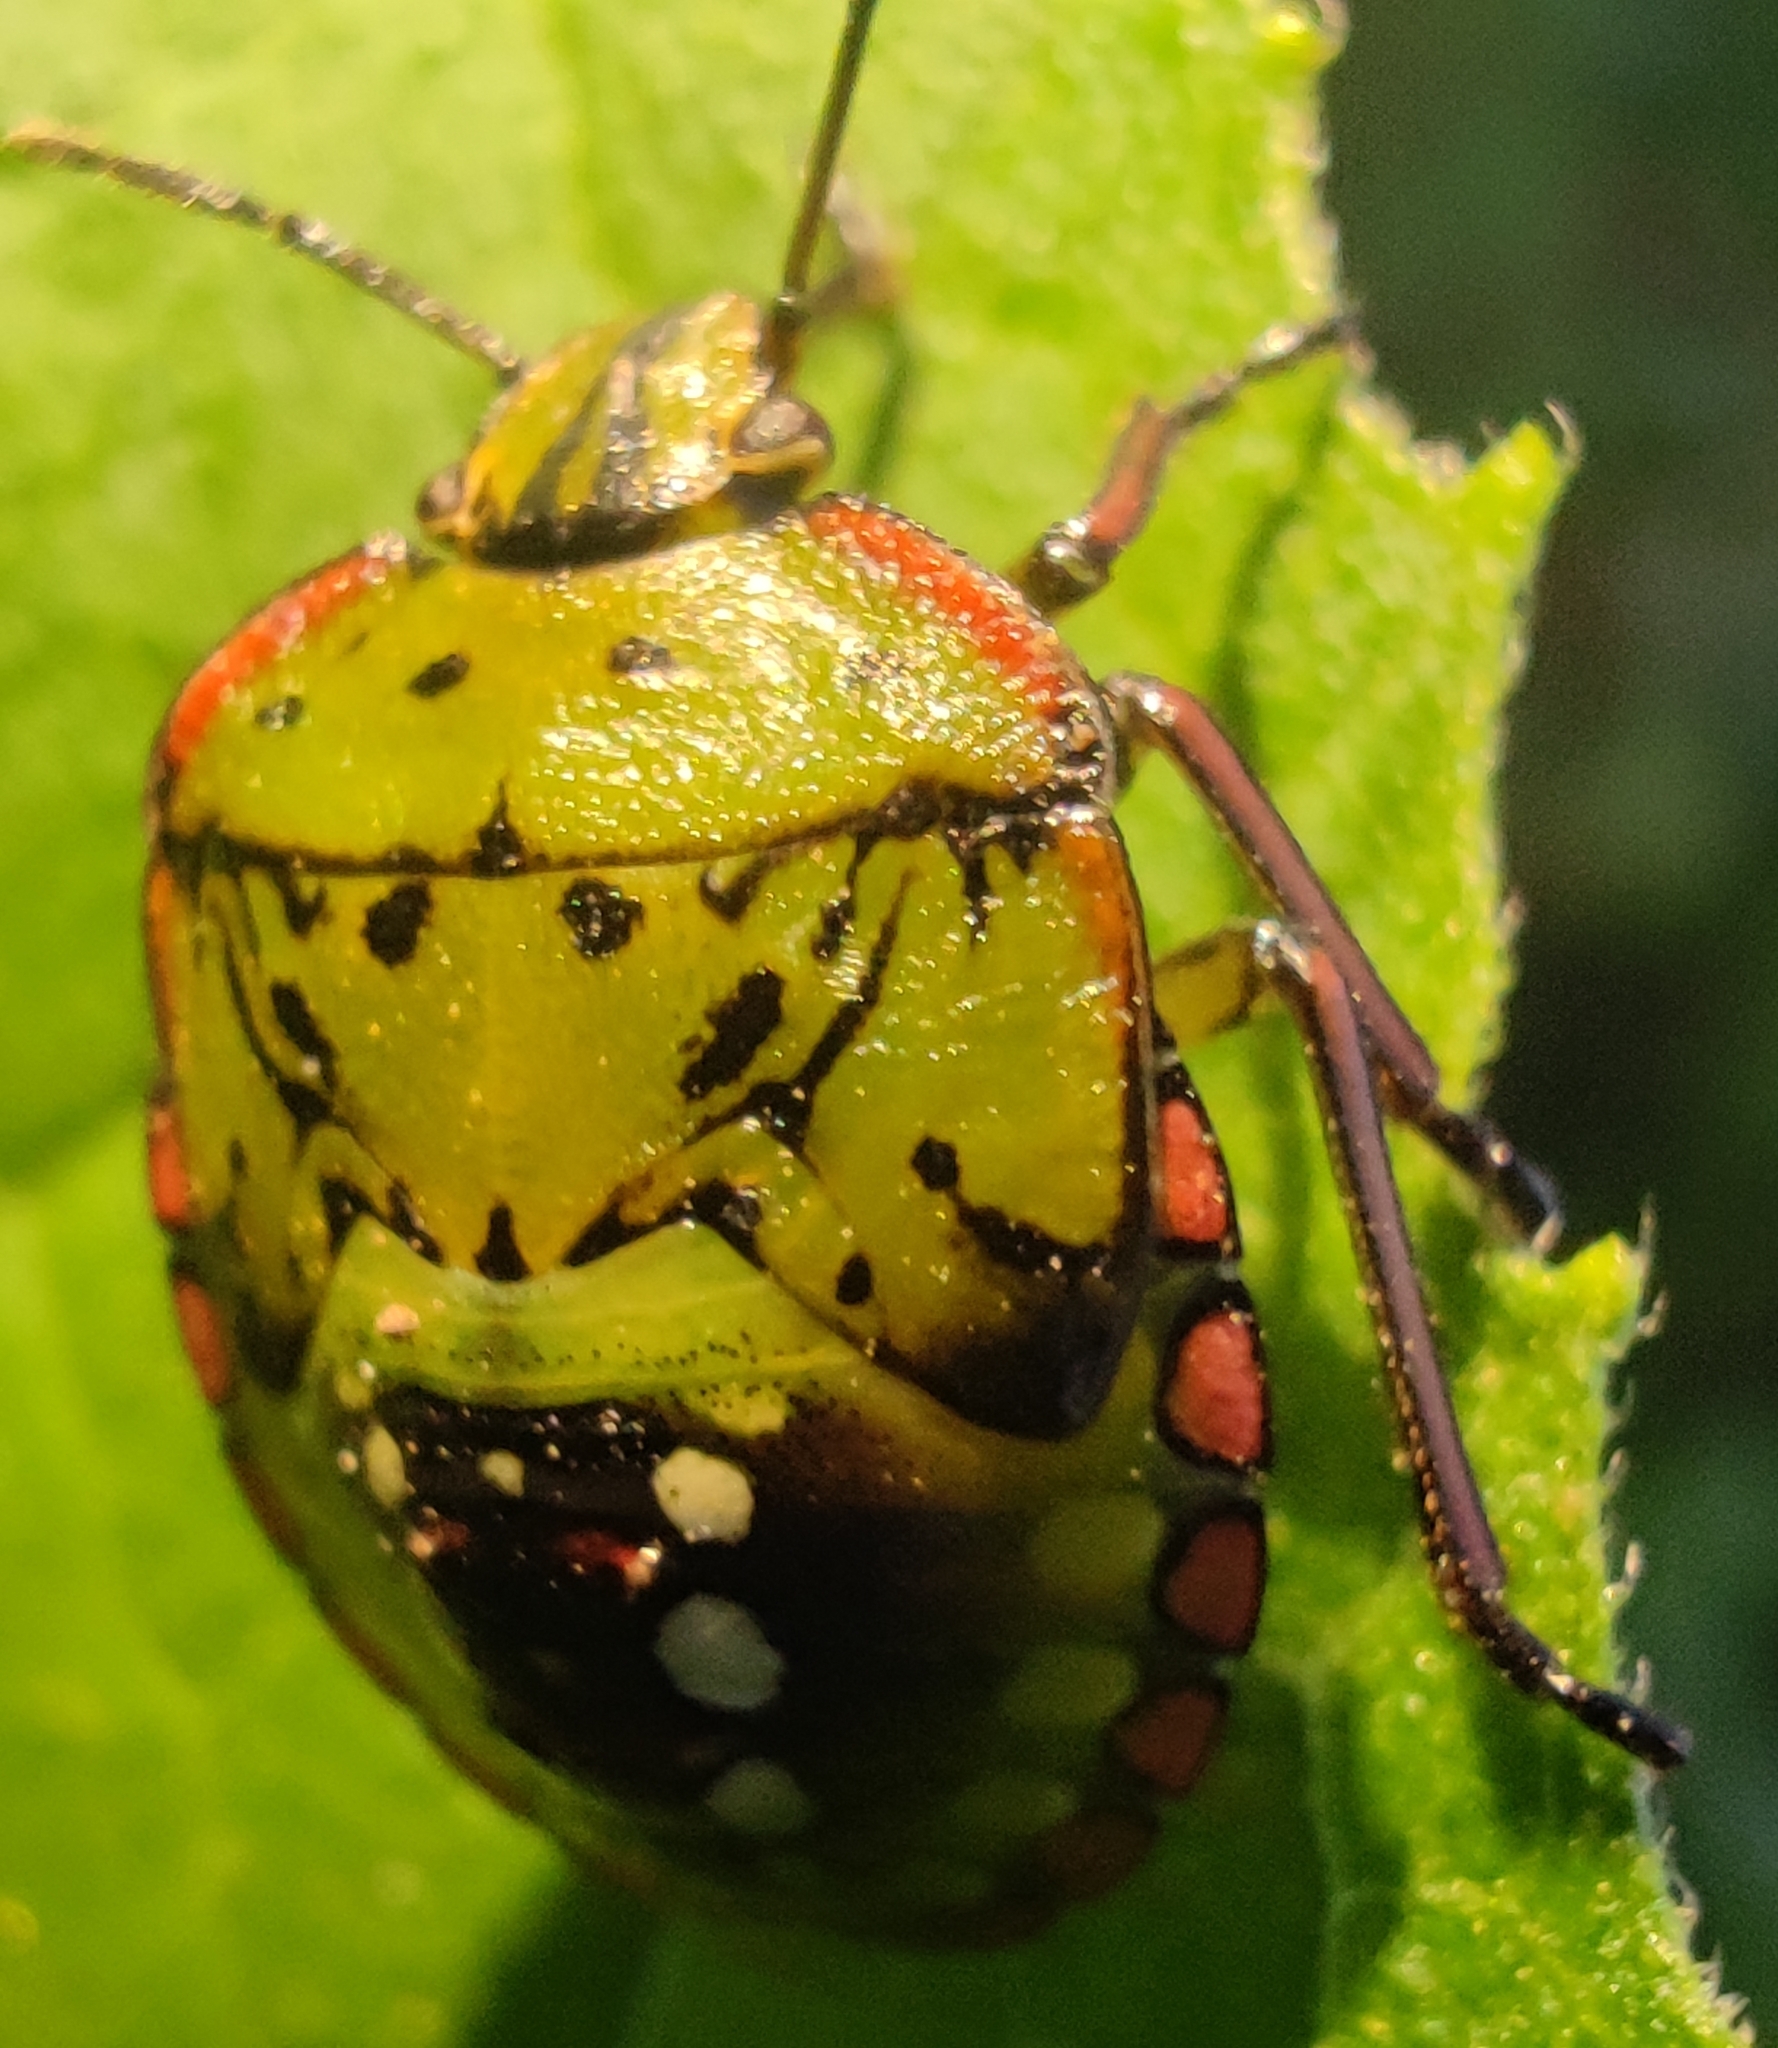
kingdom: Animalia
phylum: Arthropoda
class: Insecta
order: Hemiptera
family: Pentatomidae
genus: Nezara
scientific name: Nezara viridula
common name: Southern green stink bug
